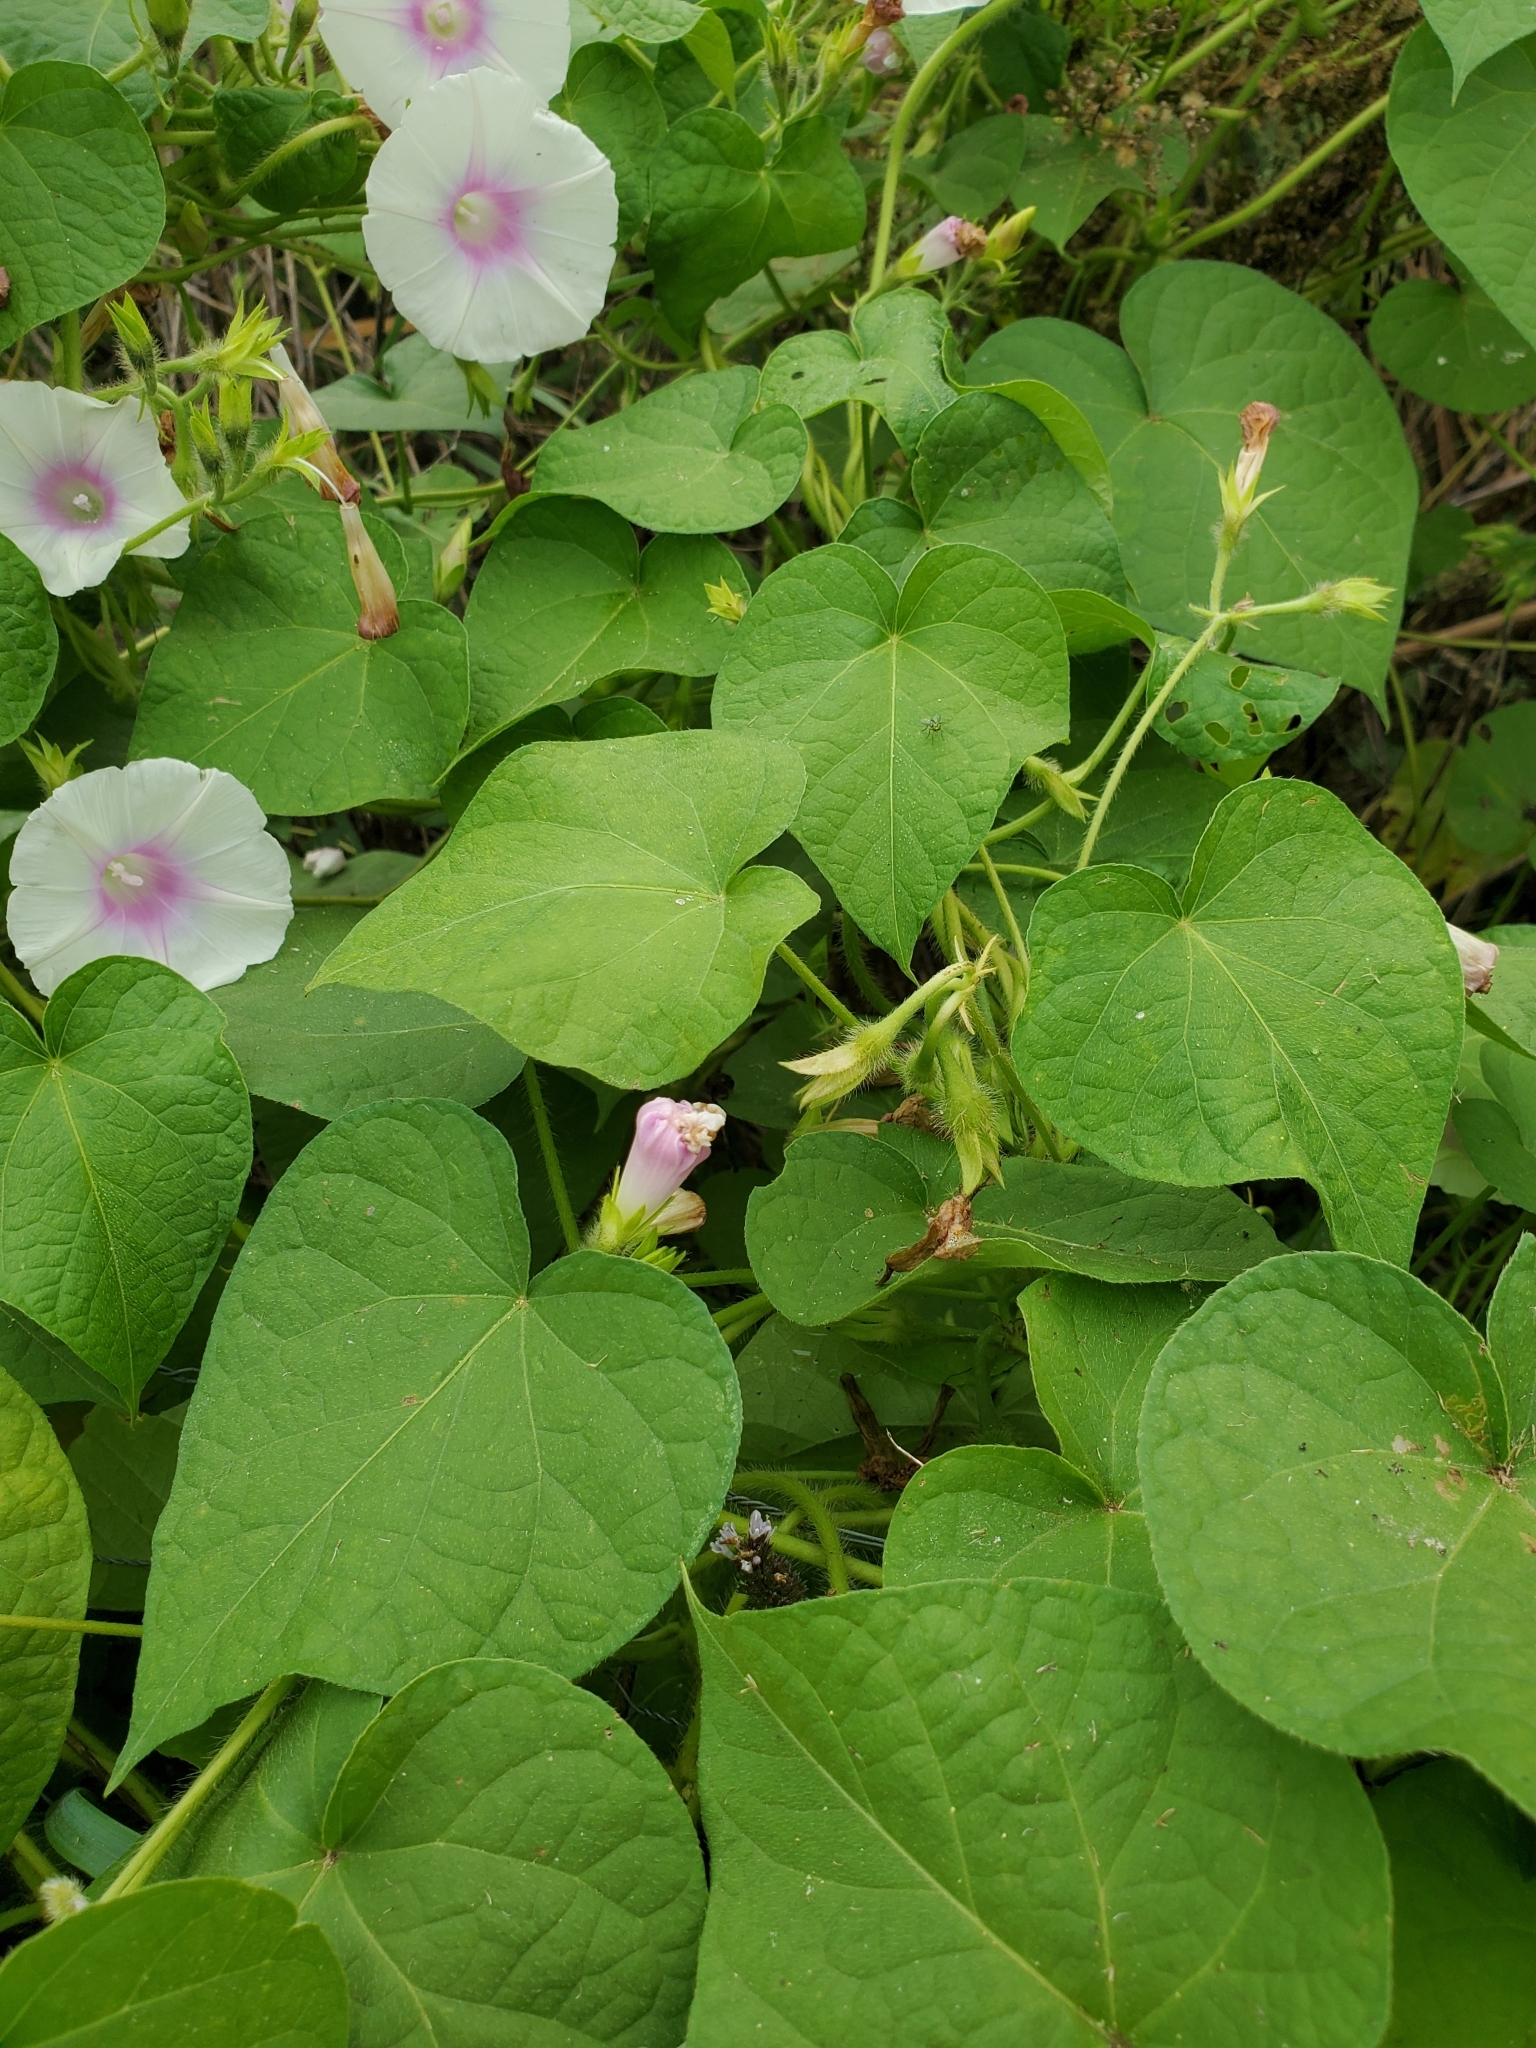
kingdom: Plantae
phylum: Tracheophyta
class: Magnoliopsida
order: Solanales
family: Convolvulaceae
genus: Ipomoea
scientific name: Ipomoea purpurea
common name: Common morning-glory
